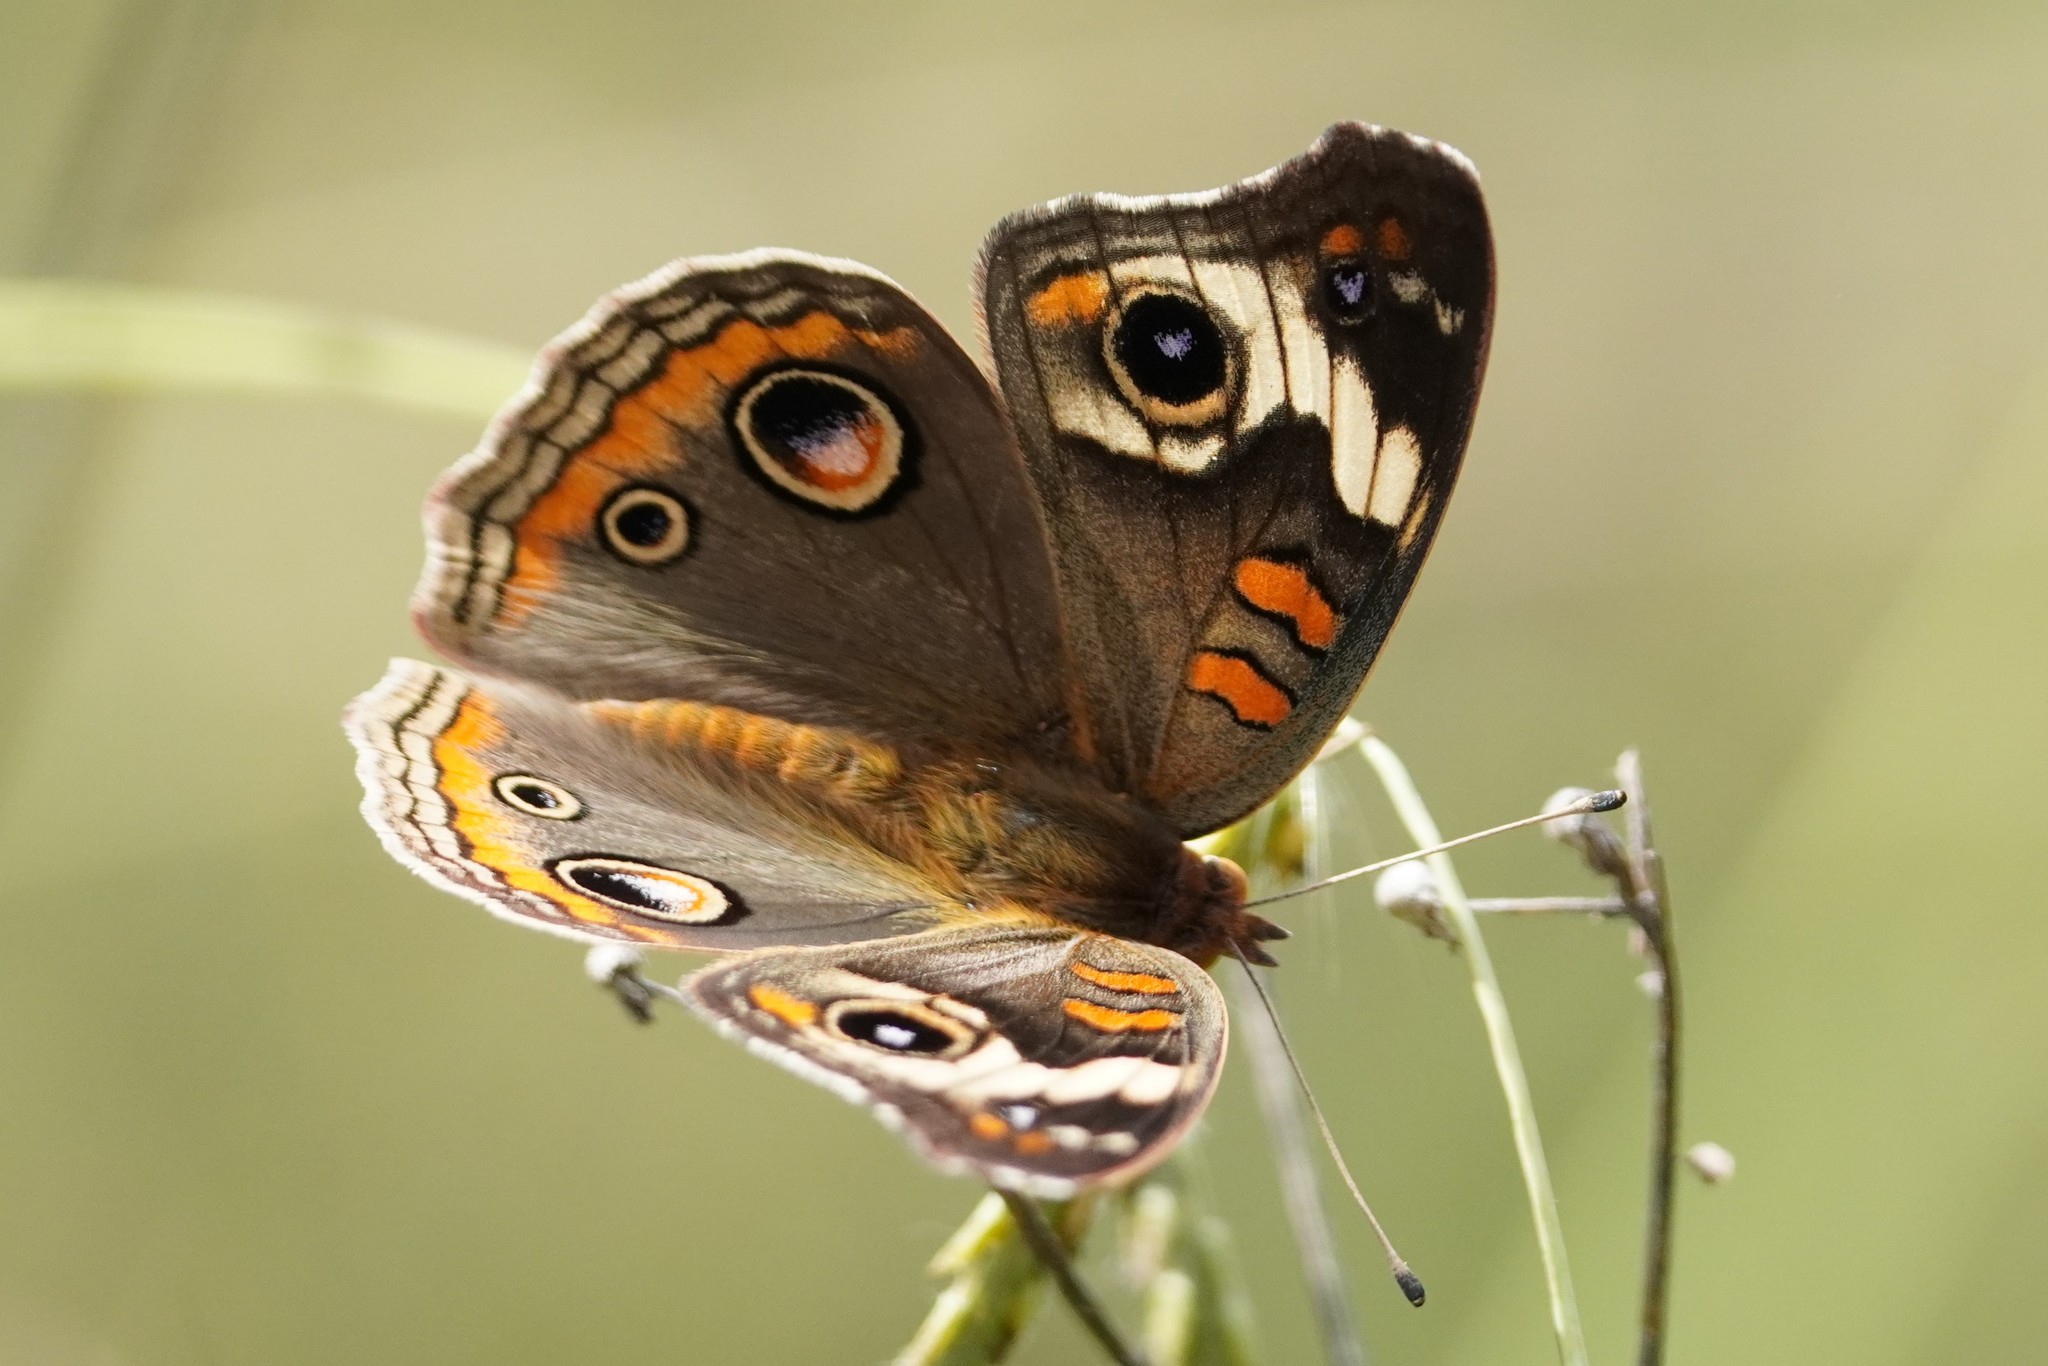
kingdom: Animalia
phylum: Arthropoda
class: Insecta
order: Lepidoptera
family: Nymphalidae
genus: Junonia
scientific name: Junonia coenia
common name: Common buckeye
